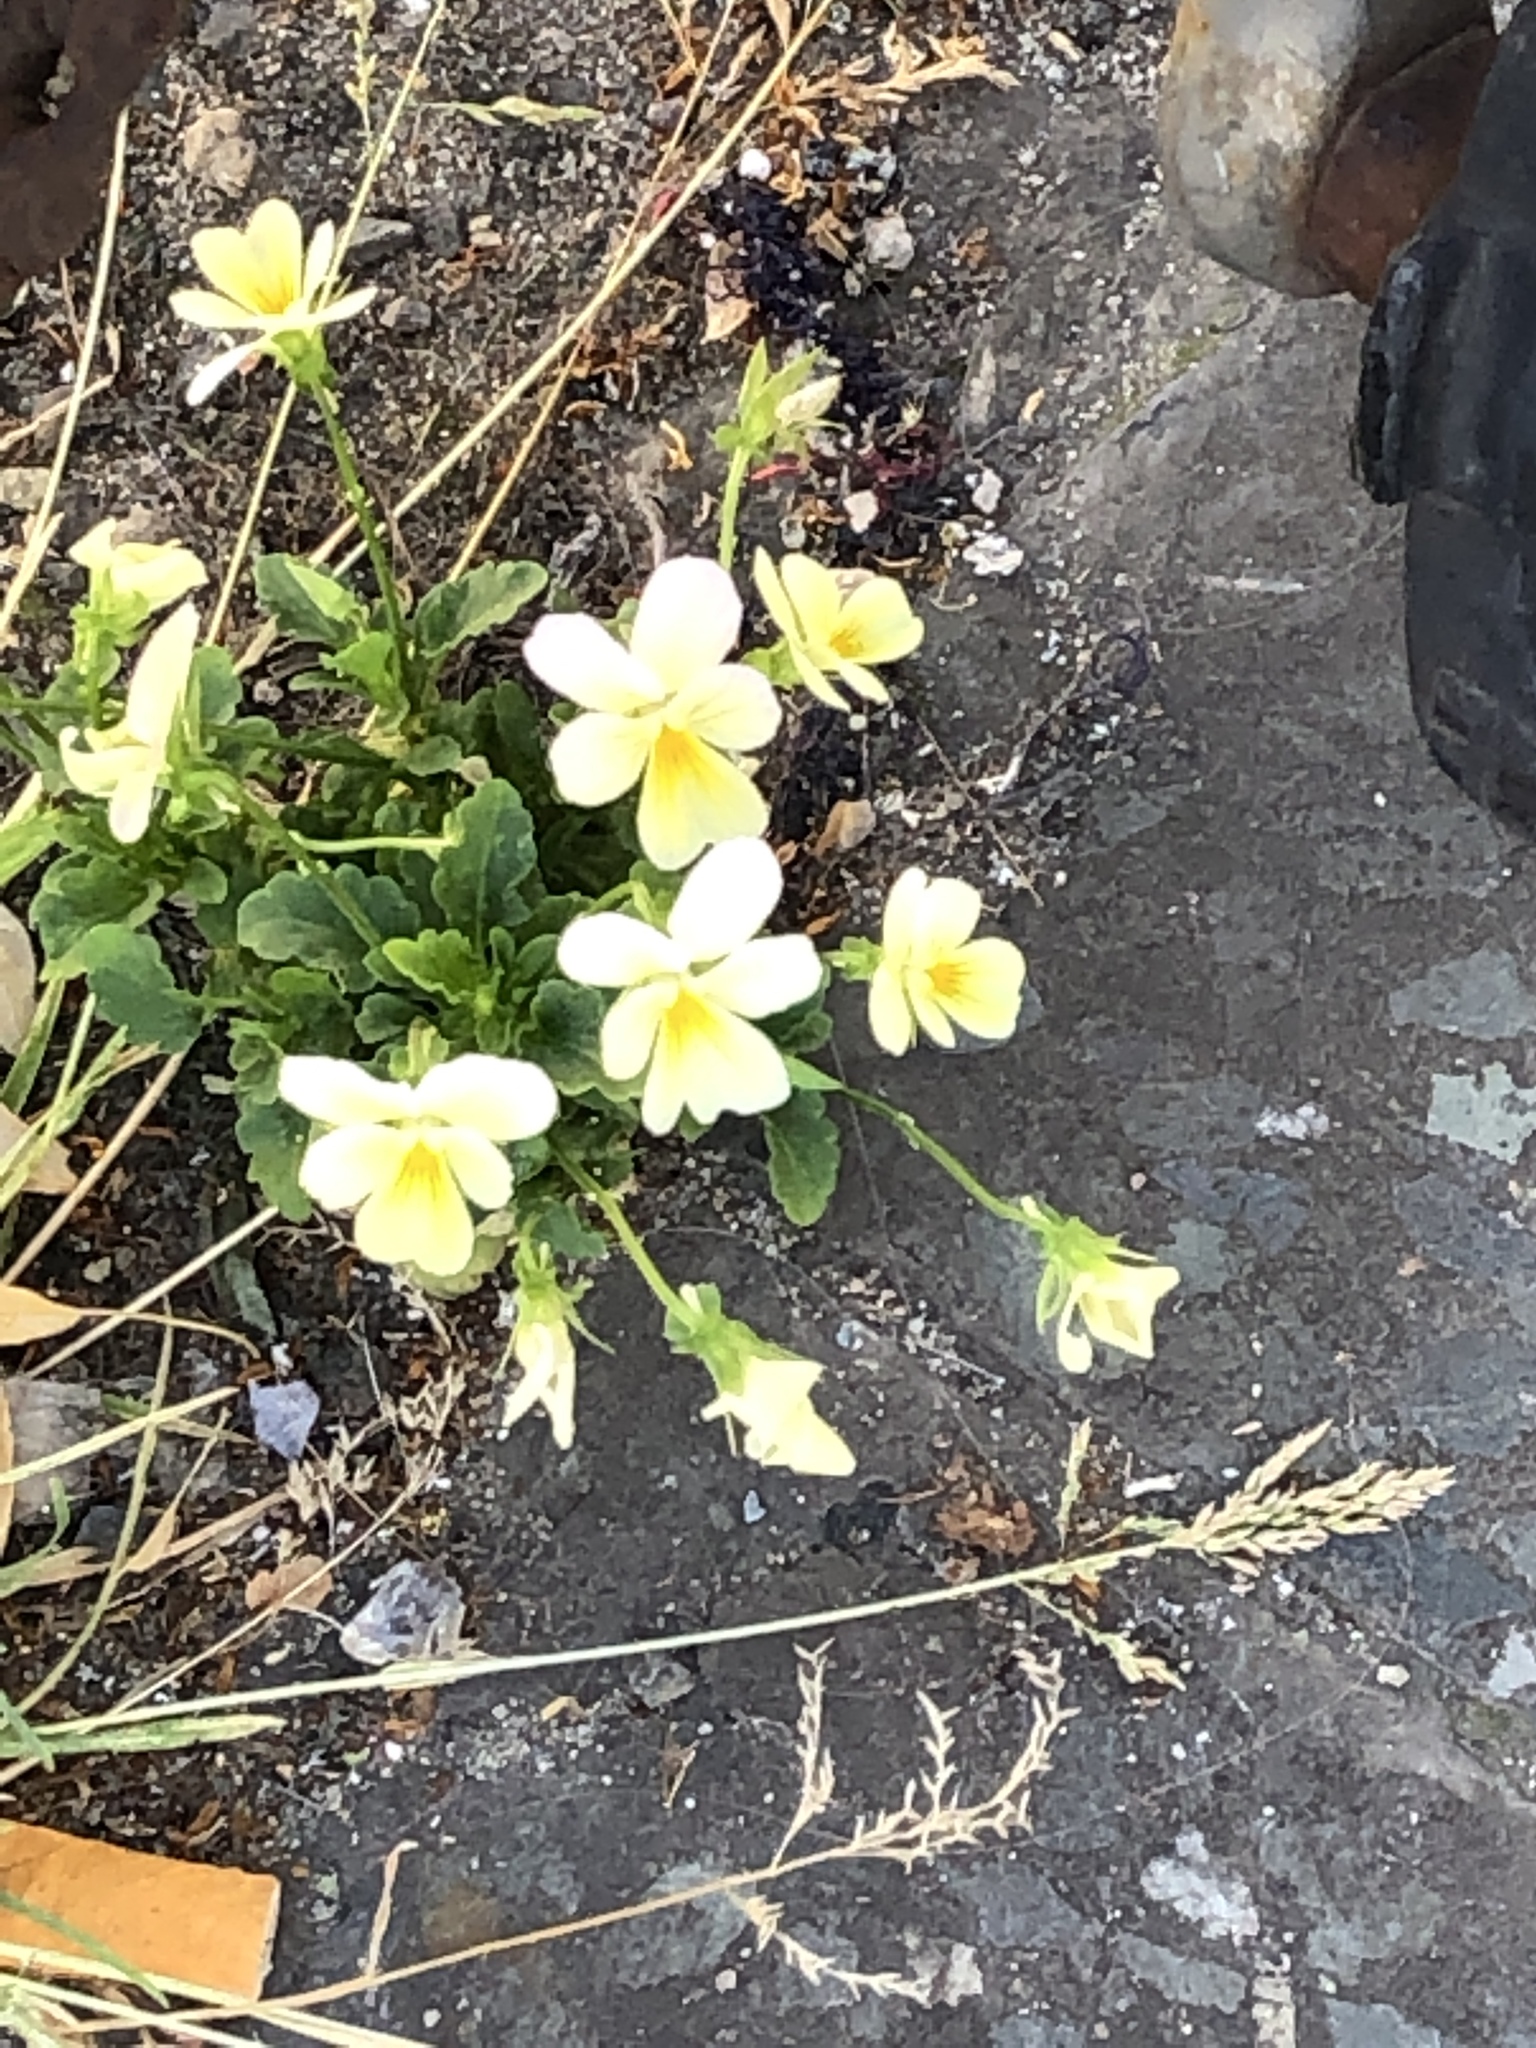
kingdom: Plantae
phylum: Tracheophyta
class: Magnoliopsida
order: Malpighiales
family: Violaceae
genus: Viola
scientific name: Viola arvensis
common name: Field pansy
